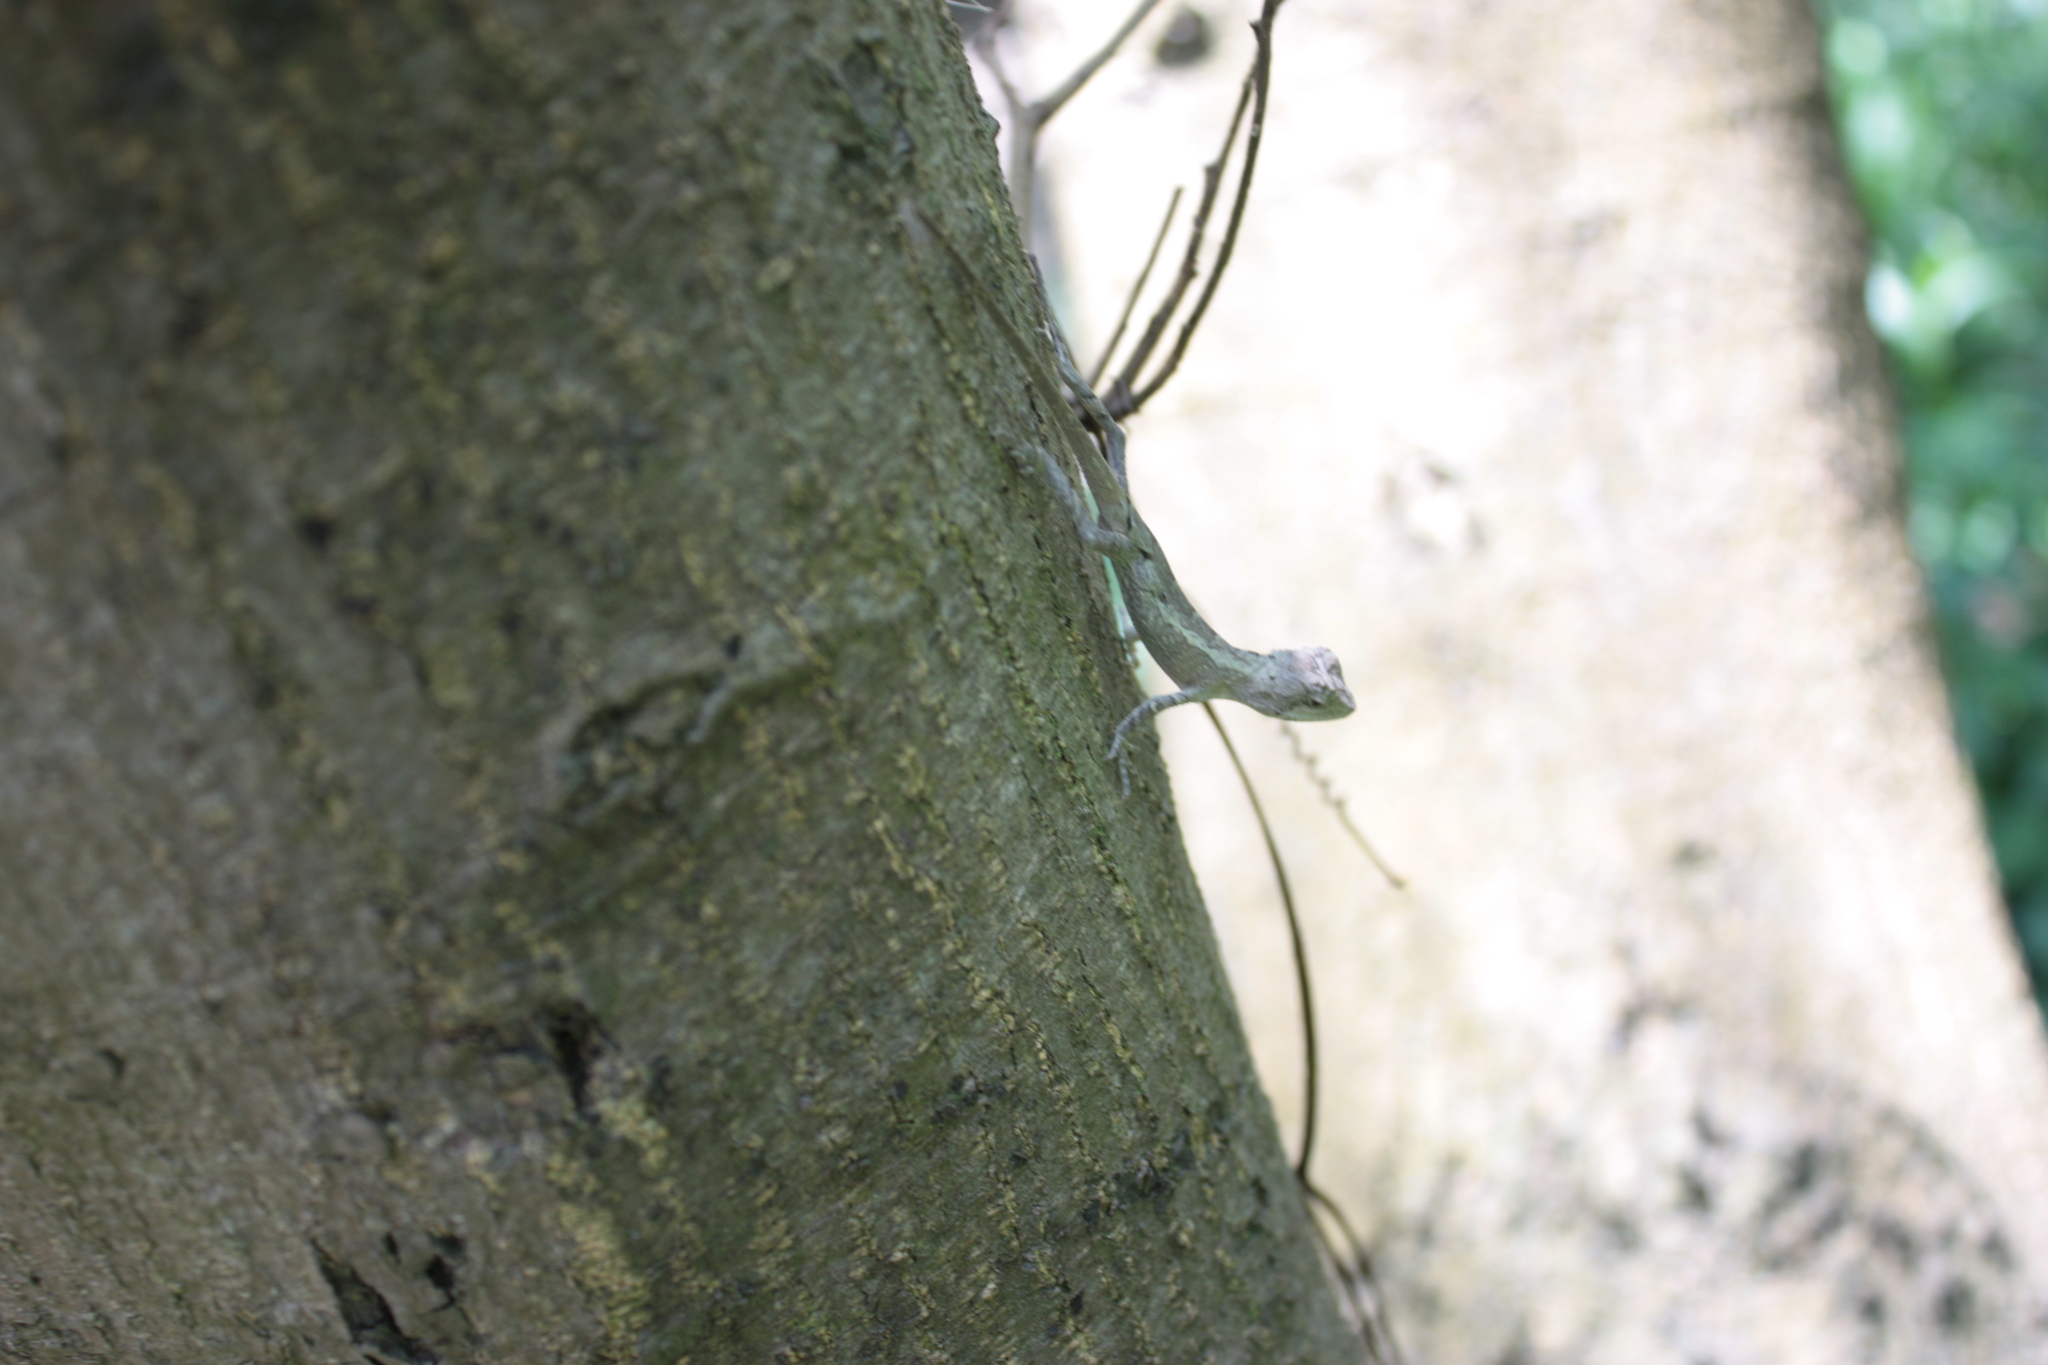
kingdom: Animalia
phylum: Chordata
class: Squamata
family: Agamidae
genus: Diploderma
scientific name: Diploderma swinhonis
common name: Taiwan japalure
